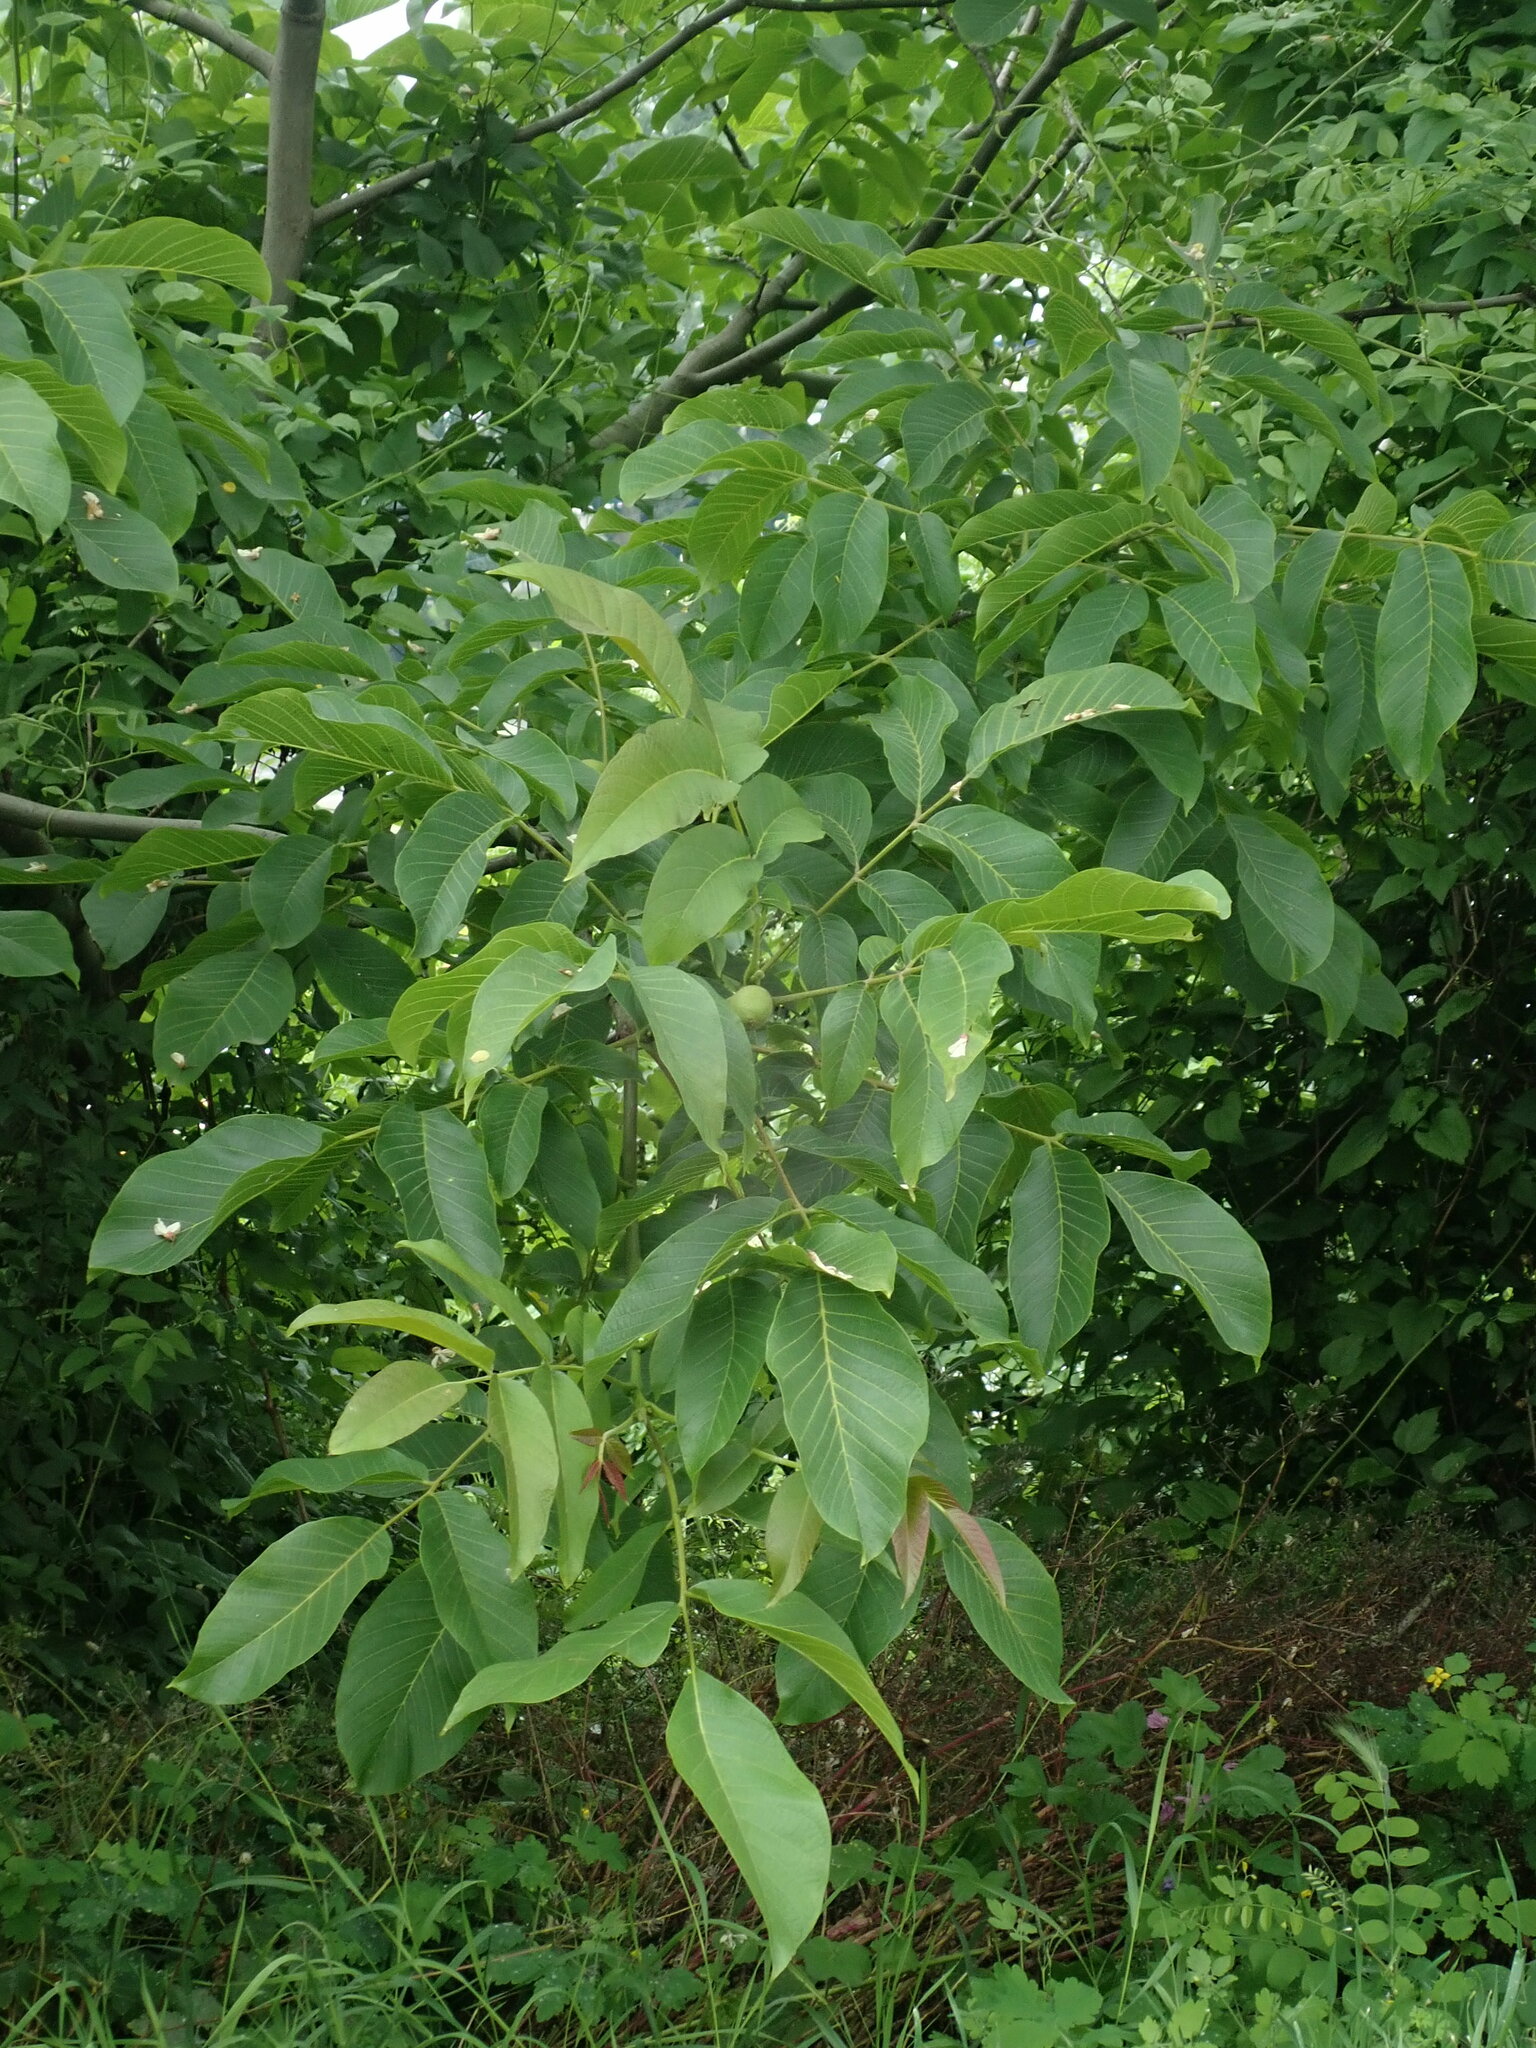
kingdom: Plantae
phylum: Tracheophyta
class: Magnoliopsida
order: Fagales
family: Juglandaceae
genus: Juglans
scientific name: Juglans regia
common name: Walnut
